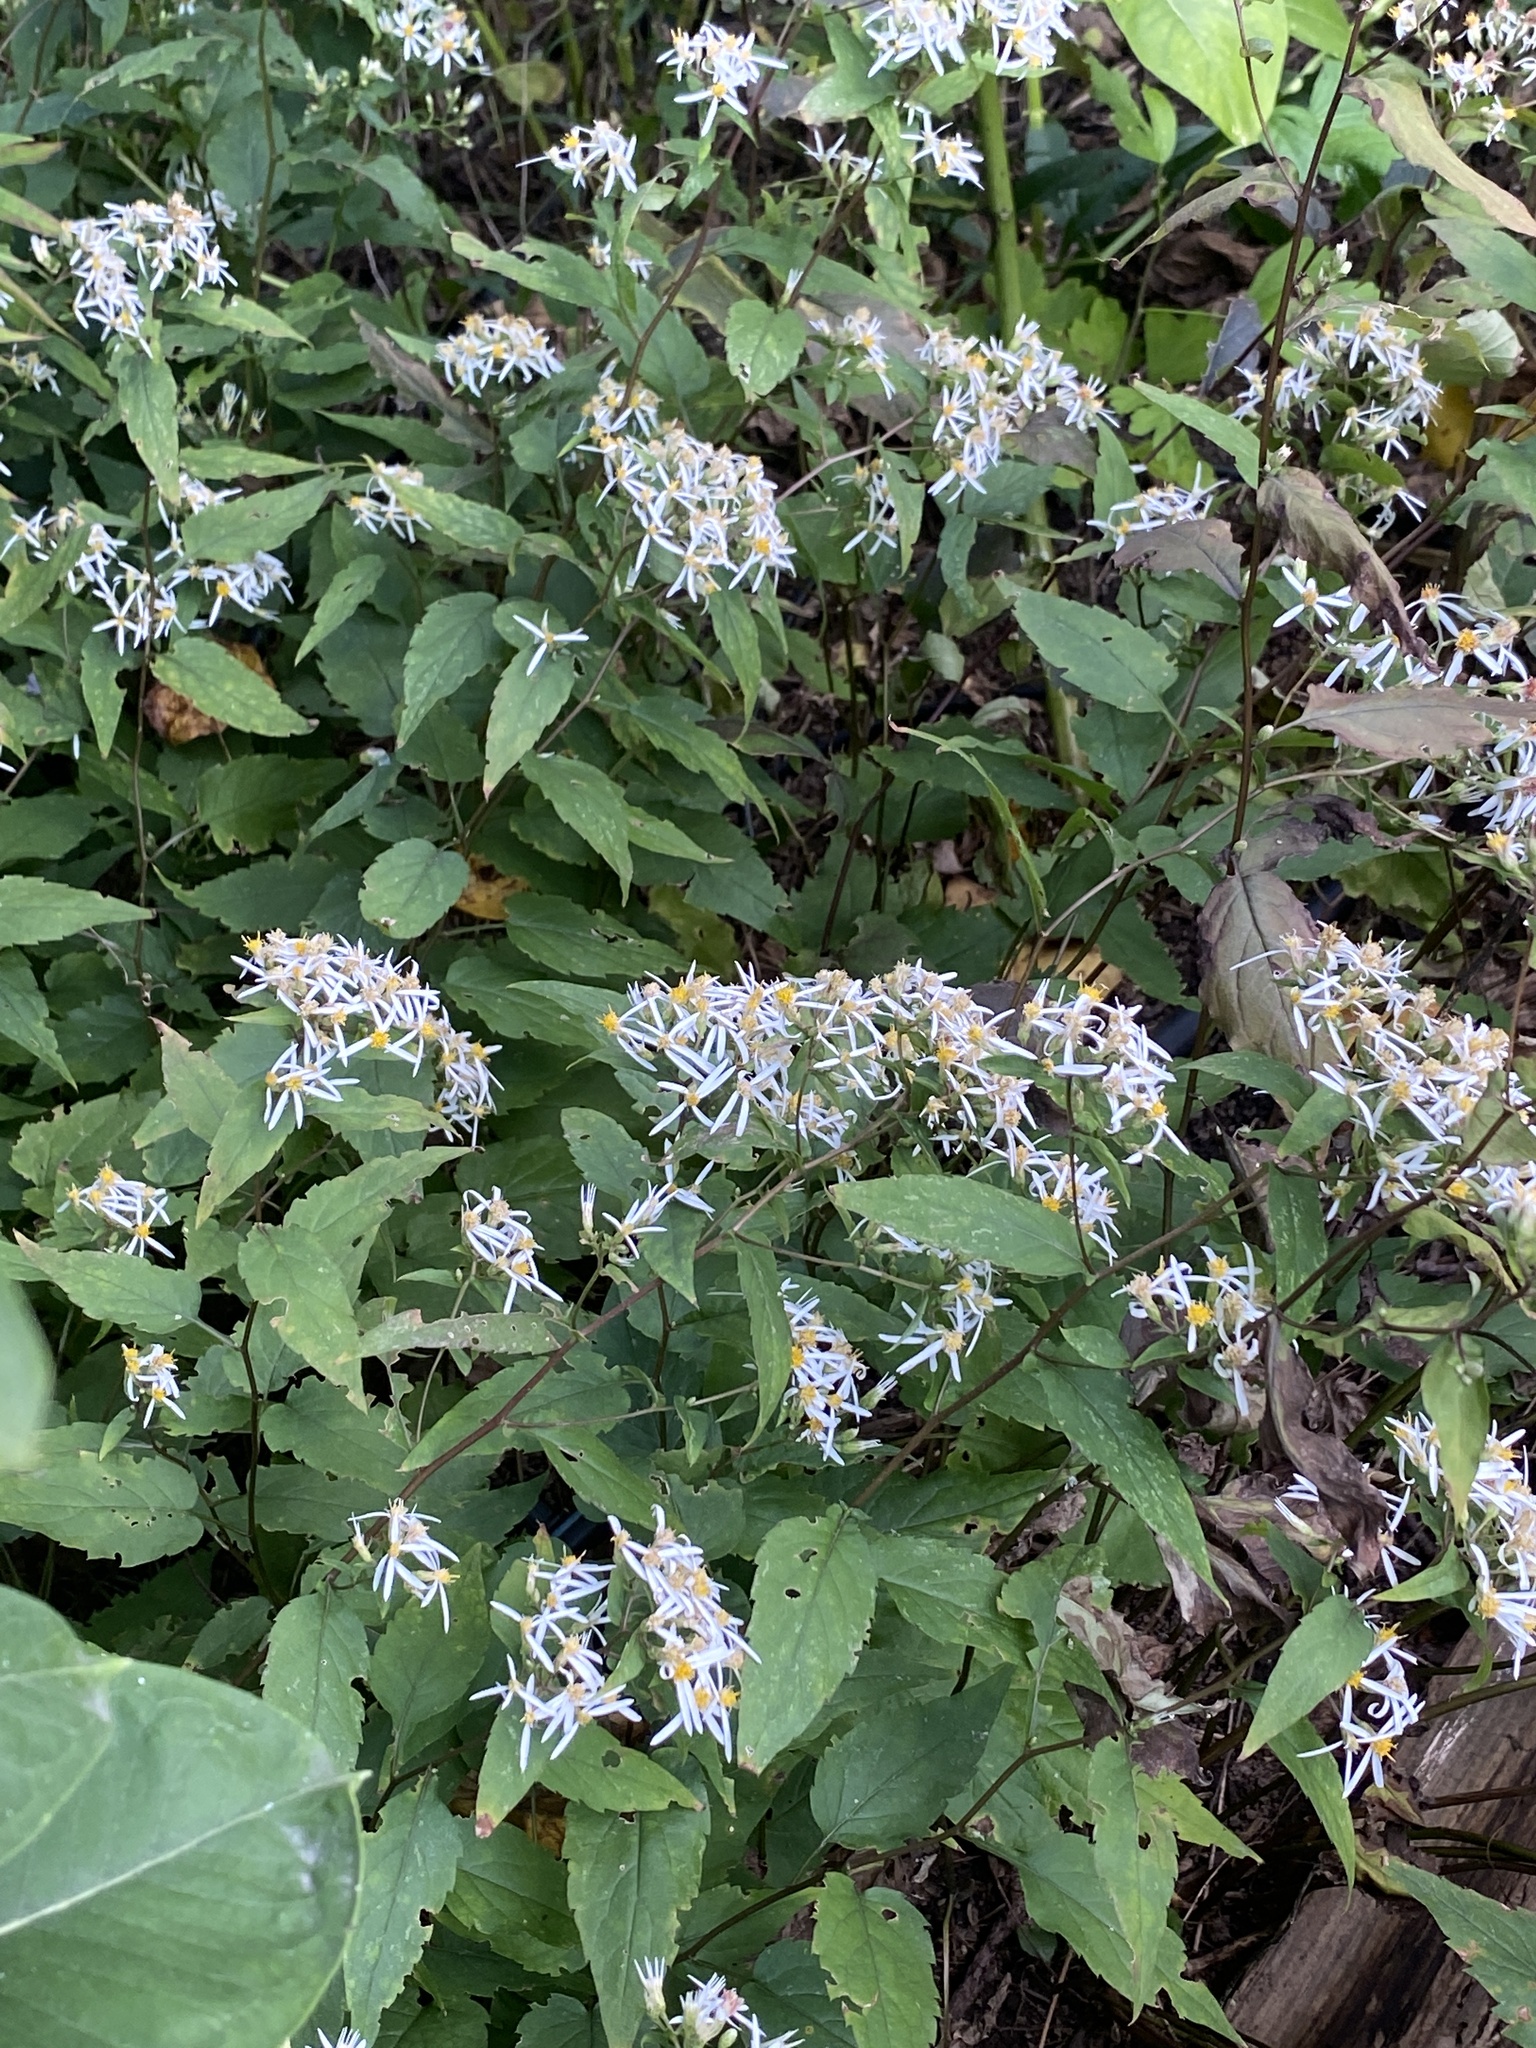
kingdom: Plantae
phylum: Tracheophyta
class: Magnoliopsida
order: Asterales
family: Asteraceae
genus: Eurybia
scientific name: Eurybia divaricata
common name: White wood aster
